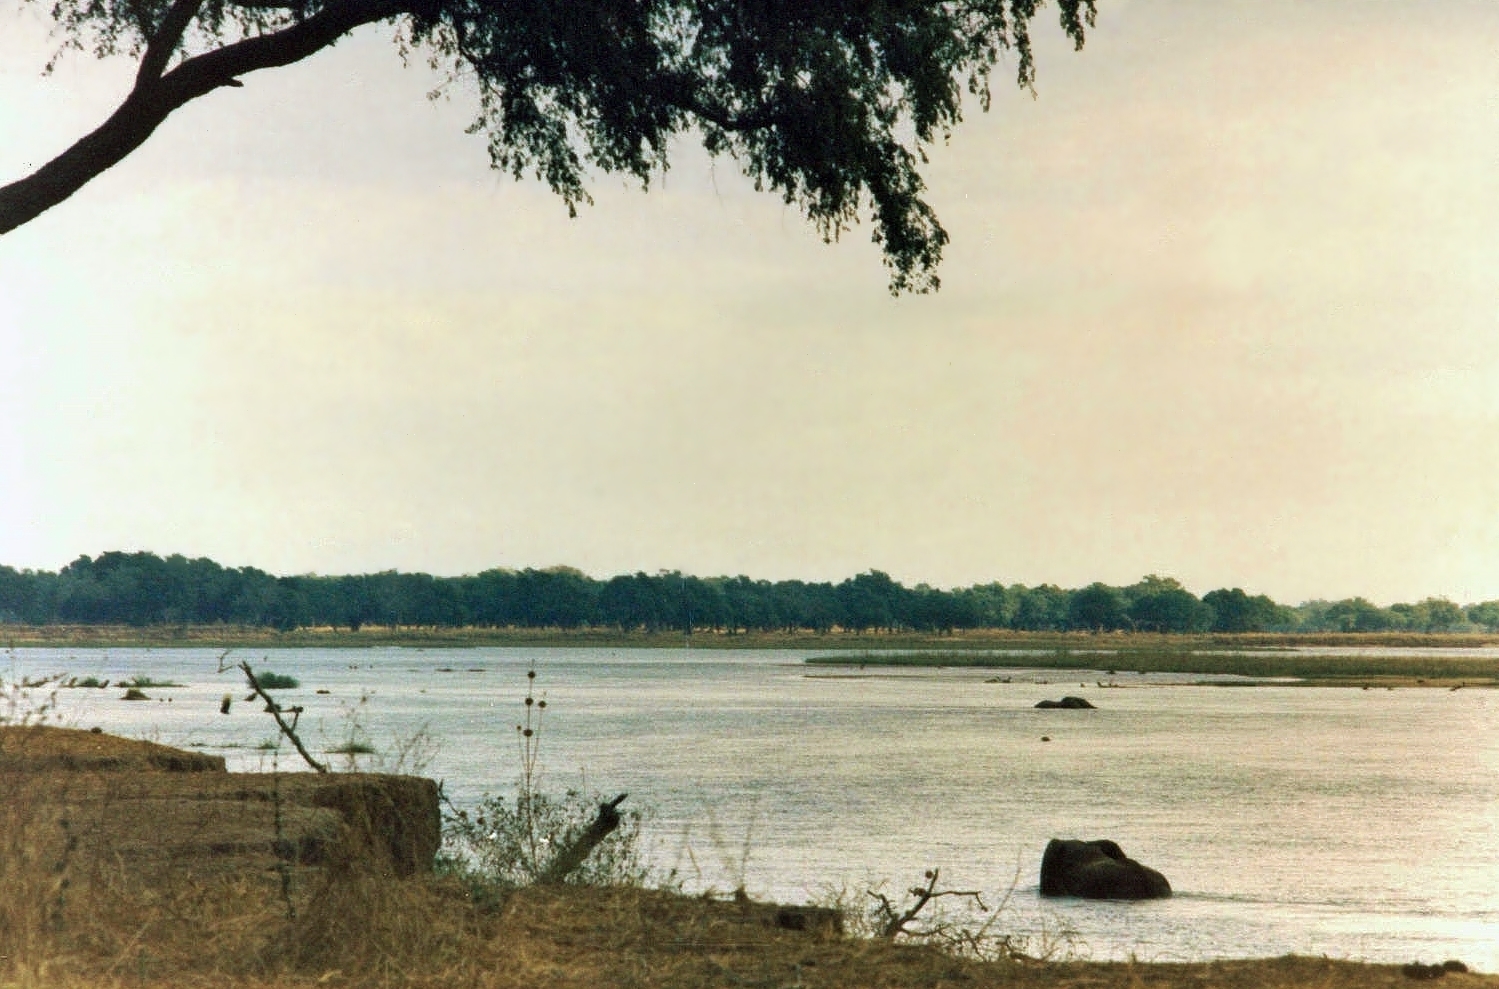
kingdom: Animalia
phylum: Chordata
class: Mammalia
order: Proboscidea
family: Elephantidae
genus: Loxodonta
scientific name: Loxodonta africana
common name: African elephant
